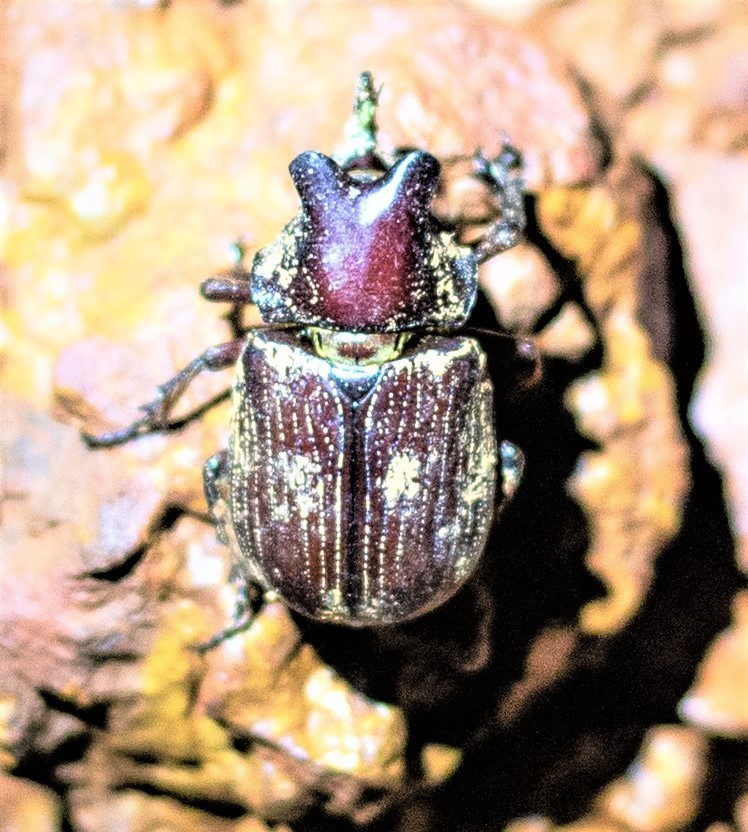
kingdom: Animalia
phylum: Arthropoda
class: Insecta
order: Coleoptera
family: Scarabaeidae
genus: Coelosis
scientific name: Coelosis biloba
